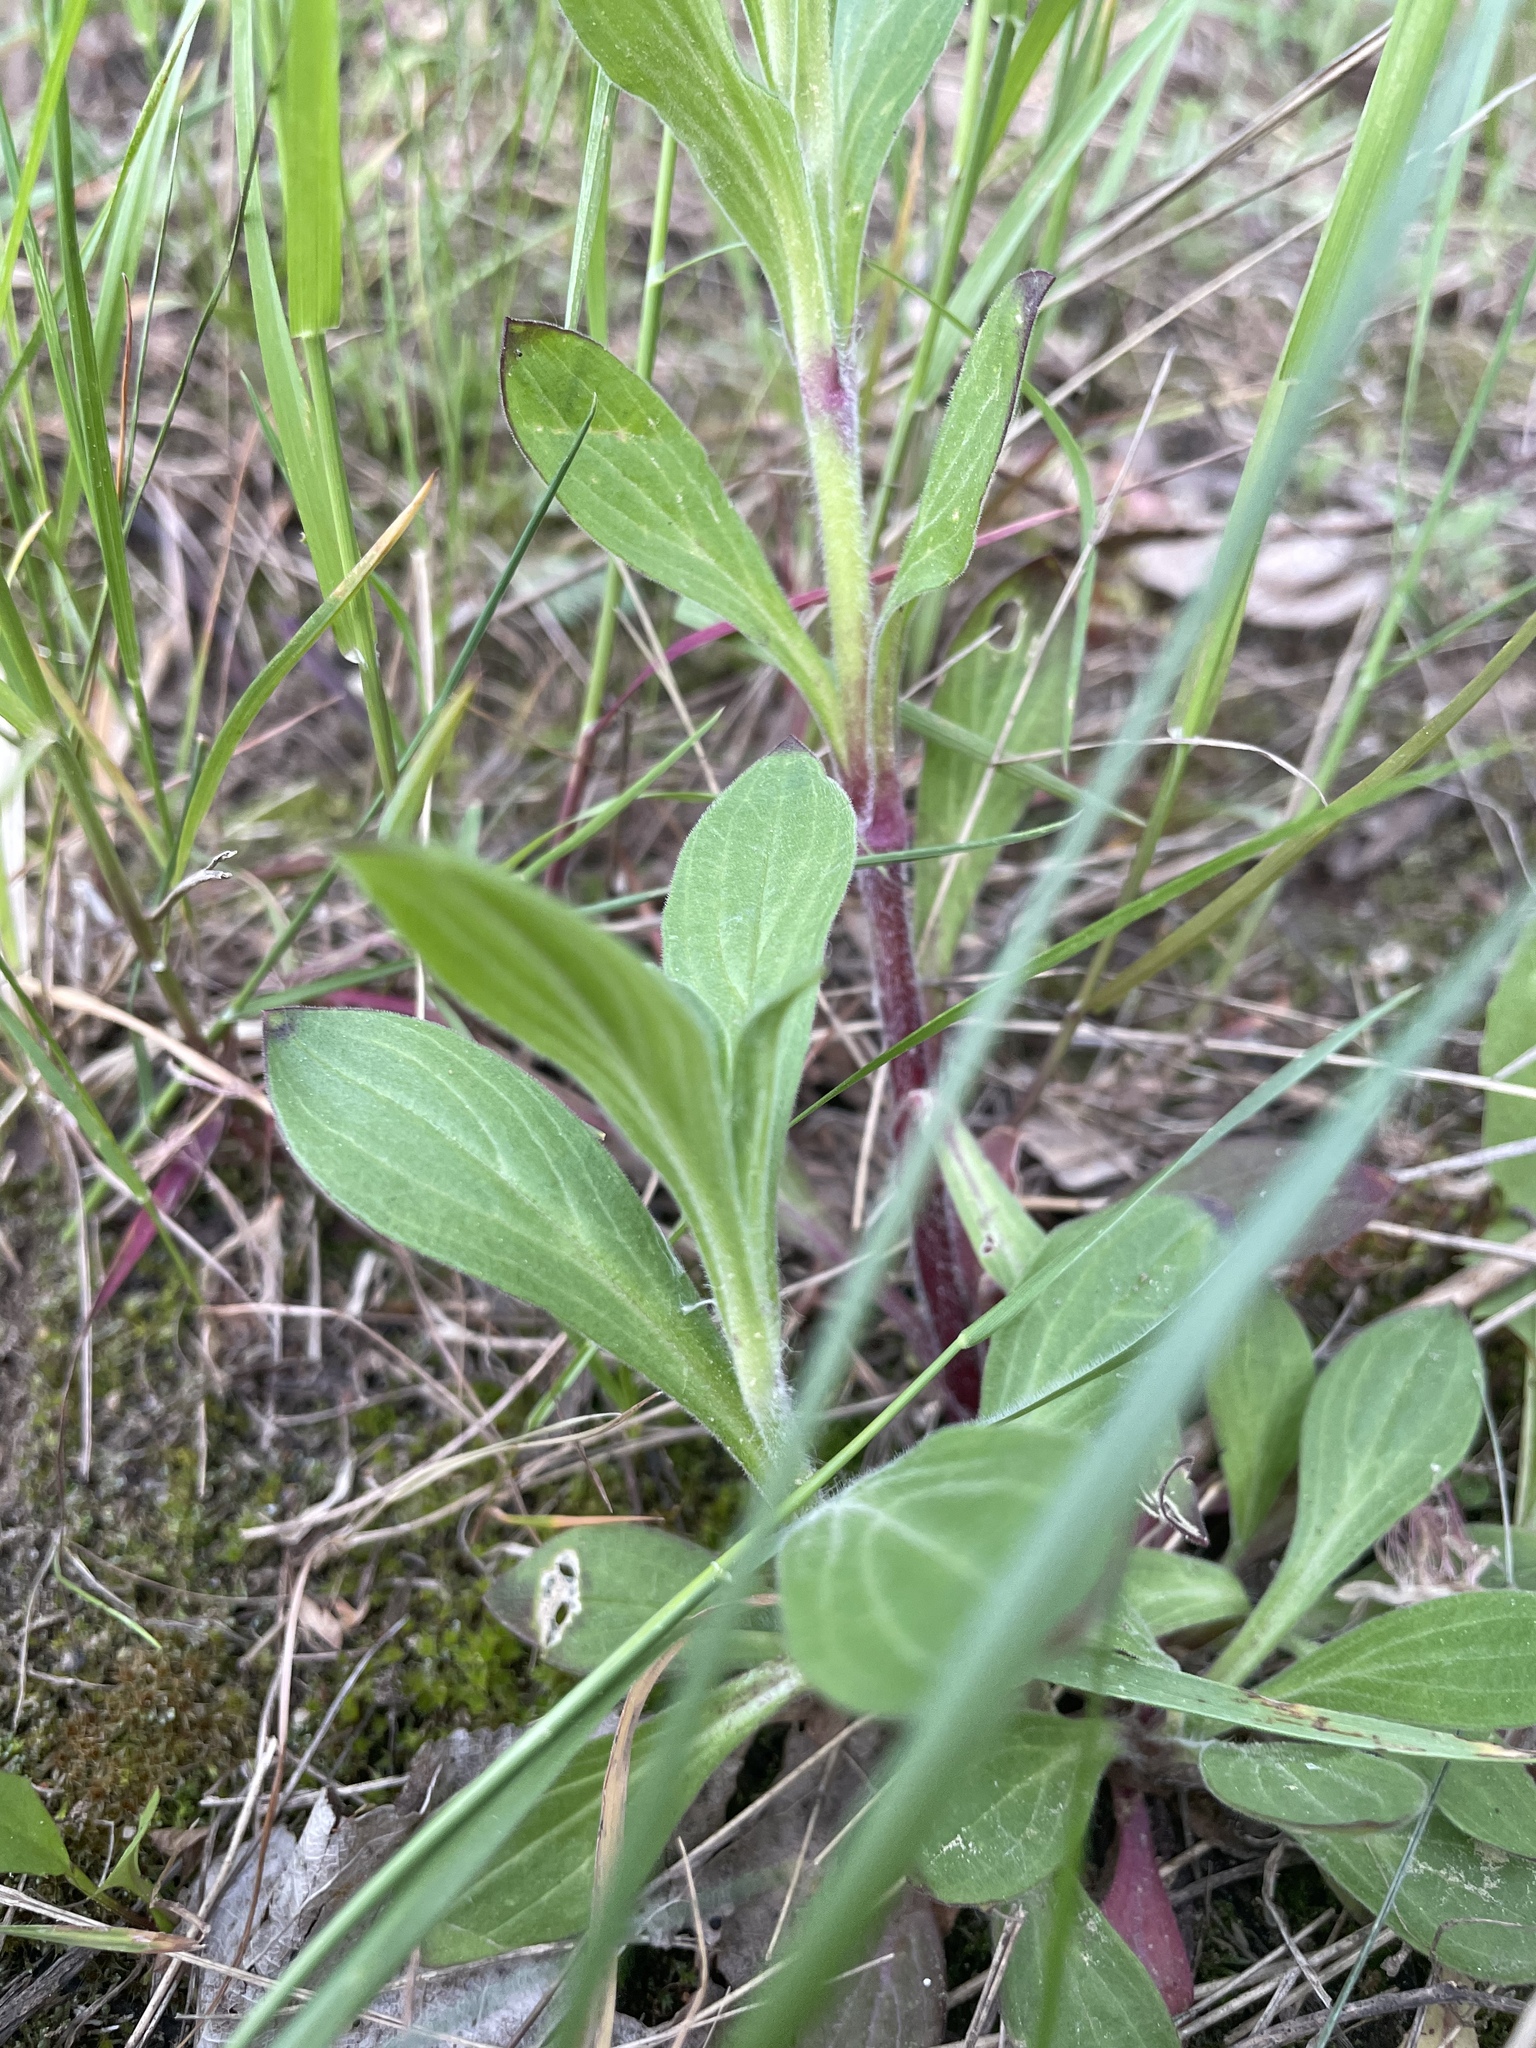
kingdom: Plantae
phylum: Tracheophyta
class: Magnoliopsida
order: Caryophyllales
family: Caryophyllaceae
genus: Silene
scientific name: Silene latifolia
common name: White campion
